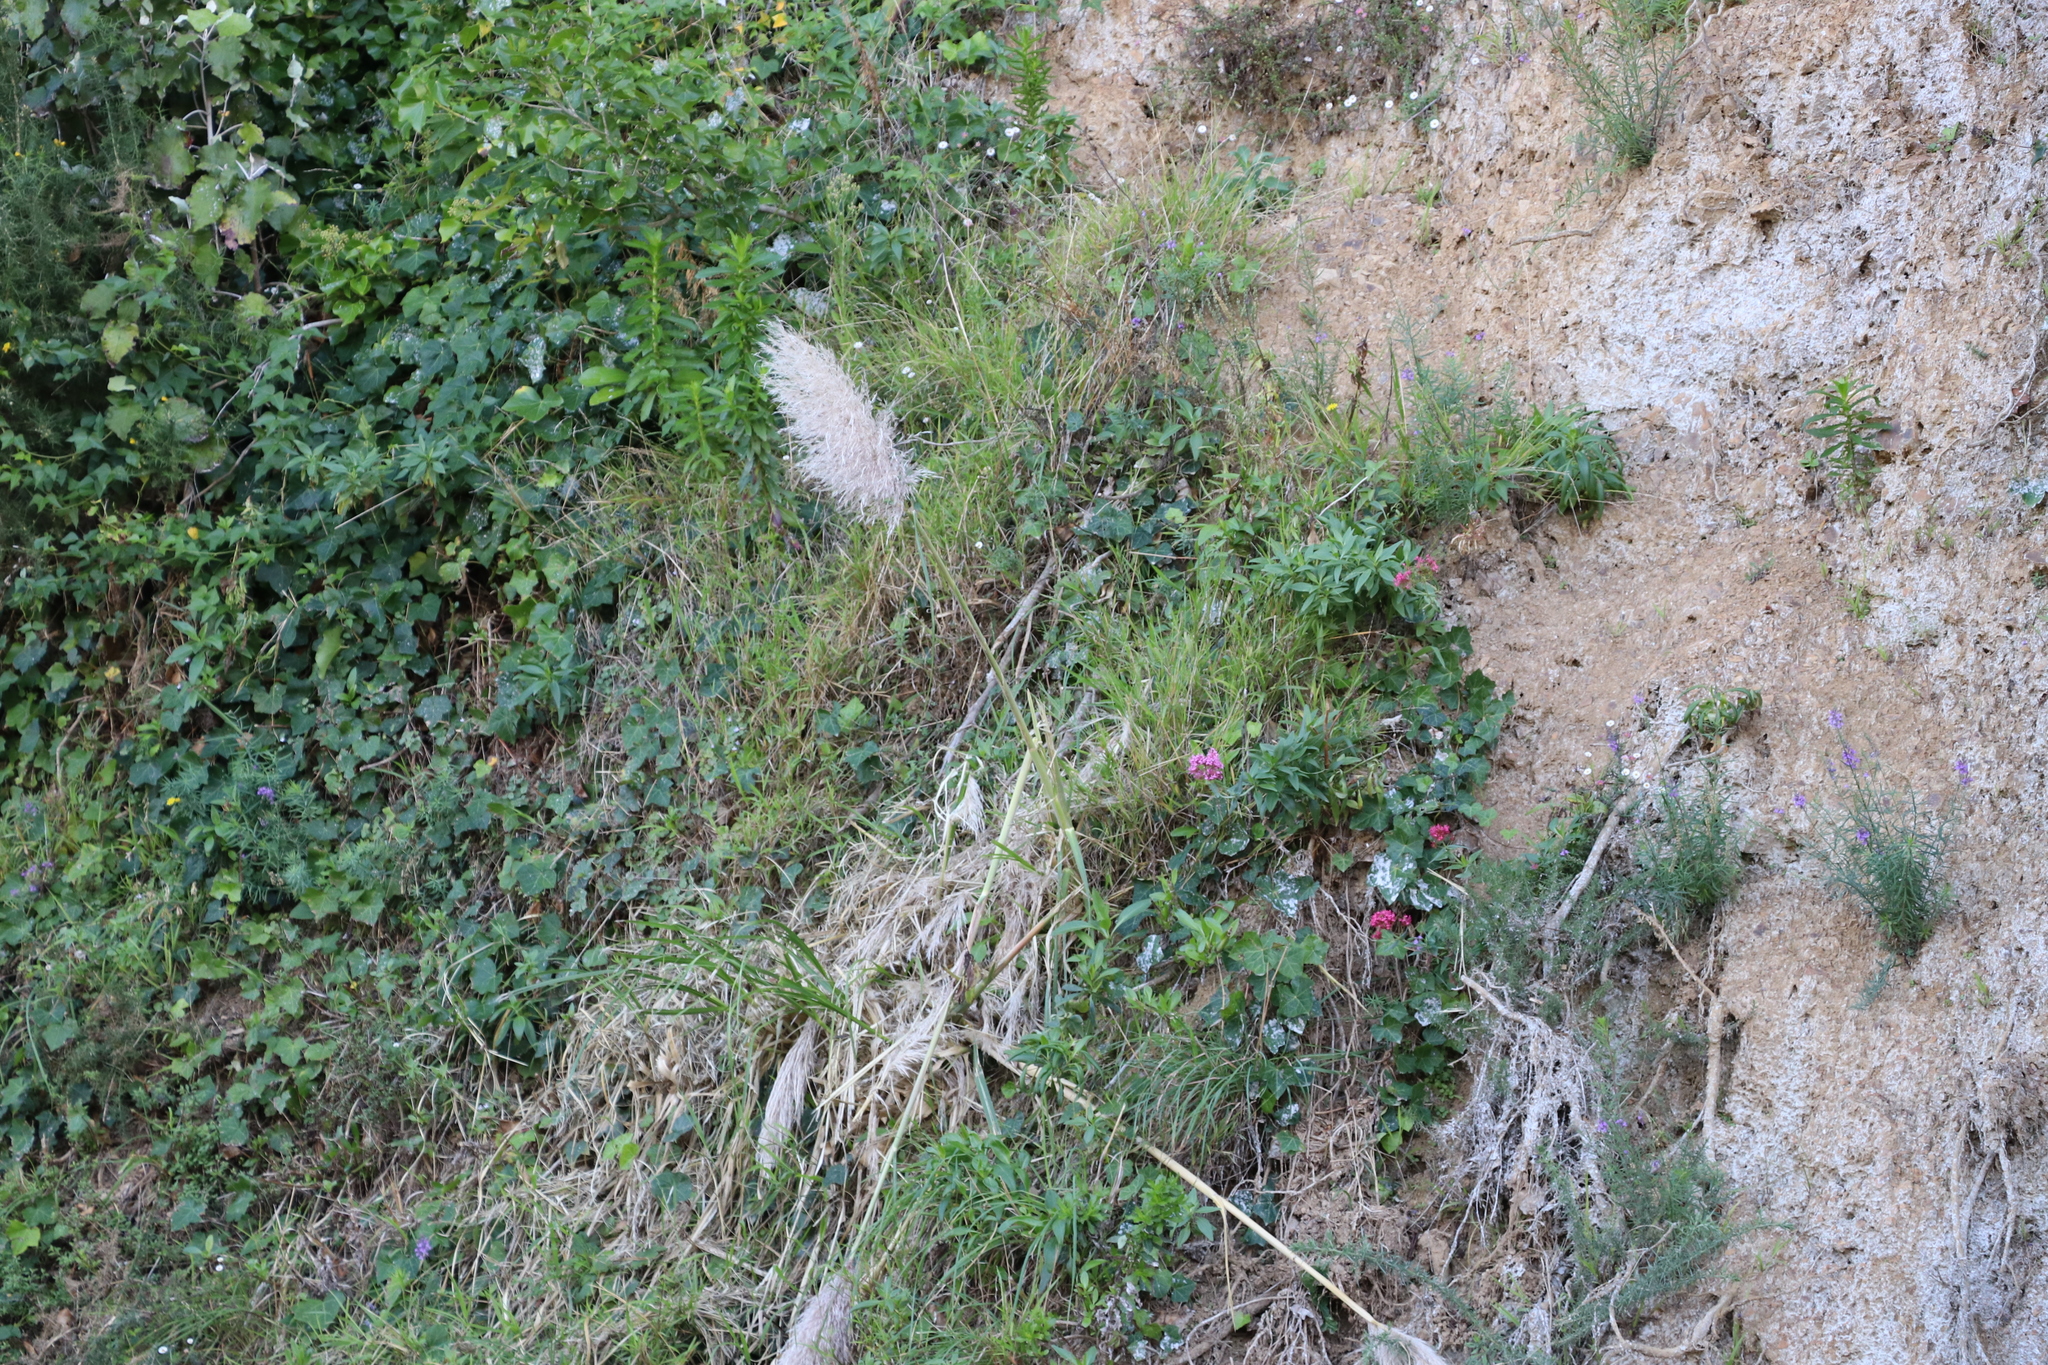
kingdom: Plantae
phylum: Tracheophyta
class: Liliopsida
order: Poales
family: Poaceae
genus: Cortaderia
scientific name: Cortaderia selloana
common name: Uruguayan pampas grass
